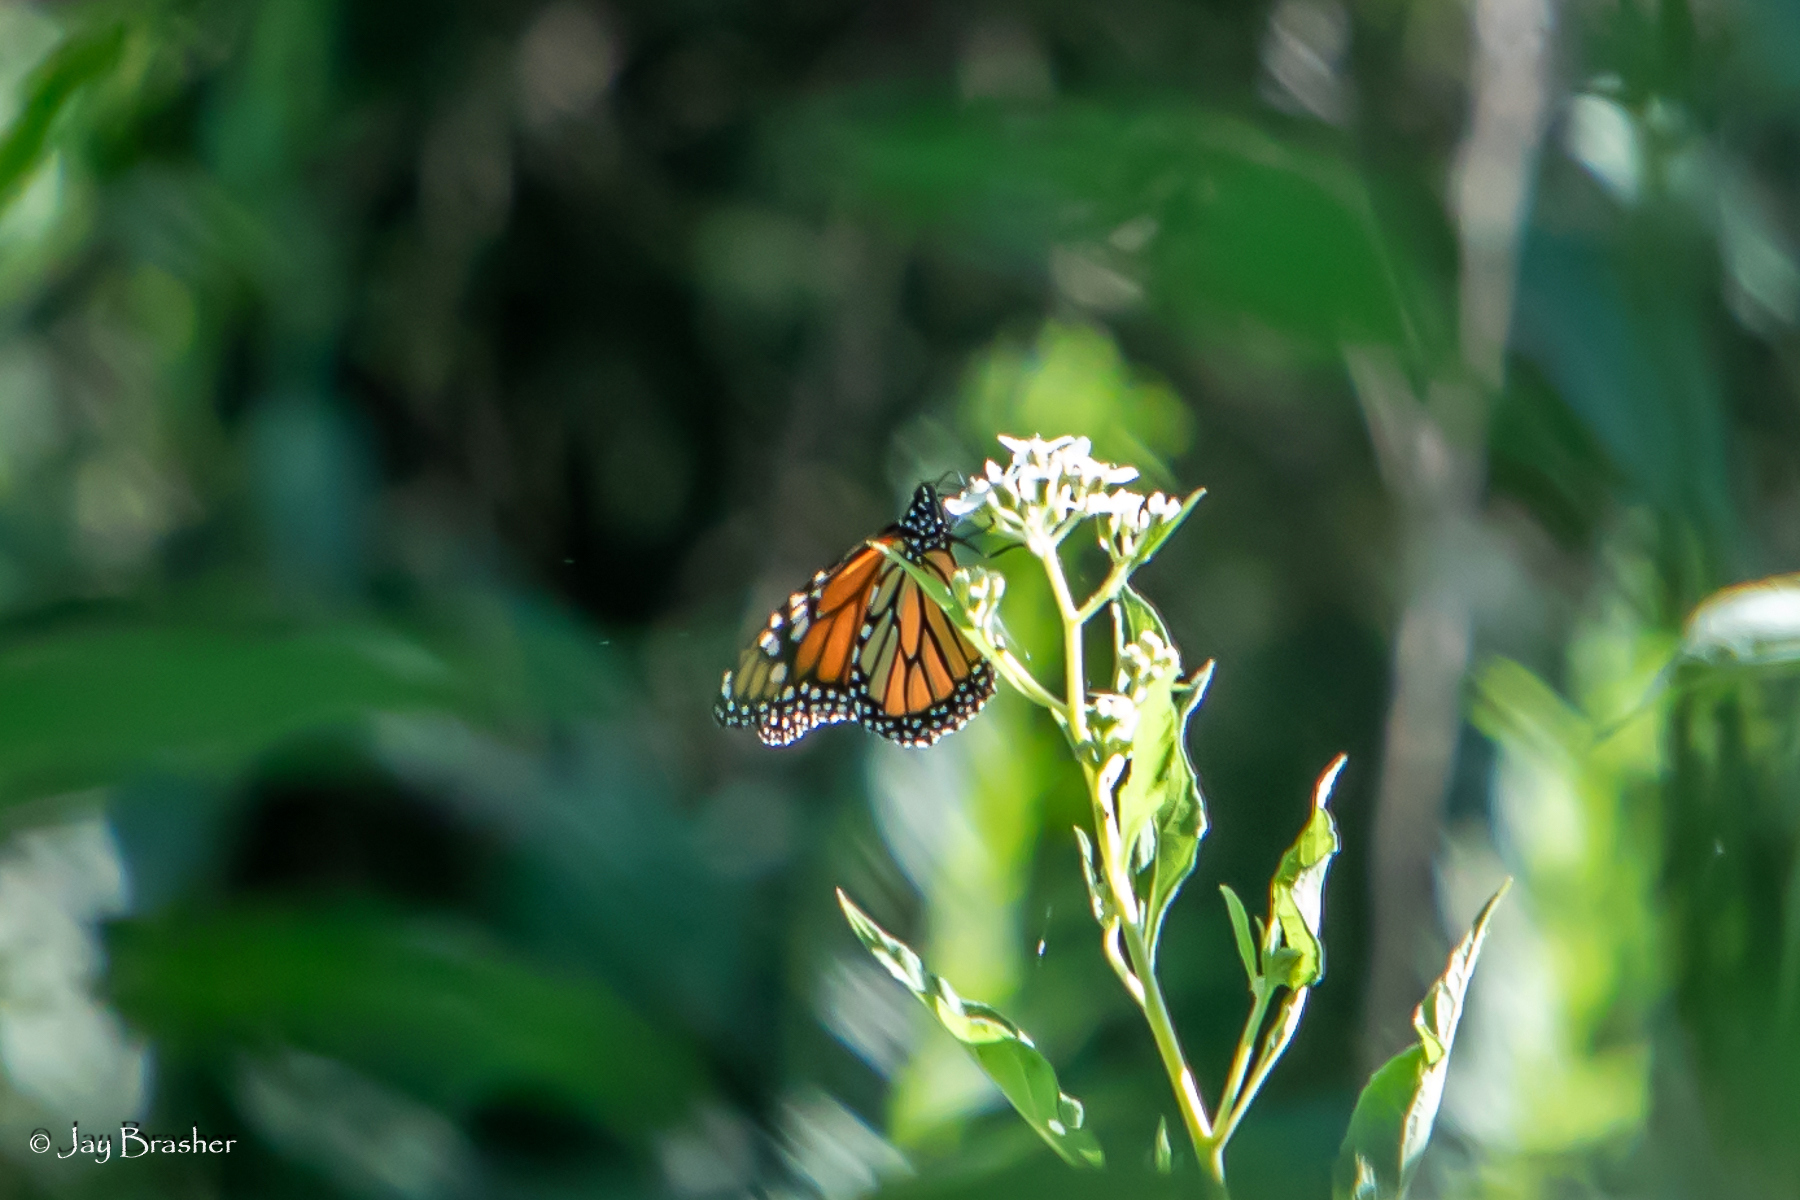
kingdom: Animalia
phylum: Arthropoda
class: Insecta
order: Lepidoptera
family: Nymphalidae
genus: Danaus
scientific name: Danaus plexippus
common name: Monarch
